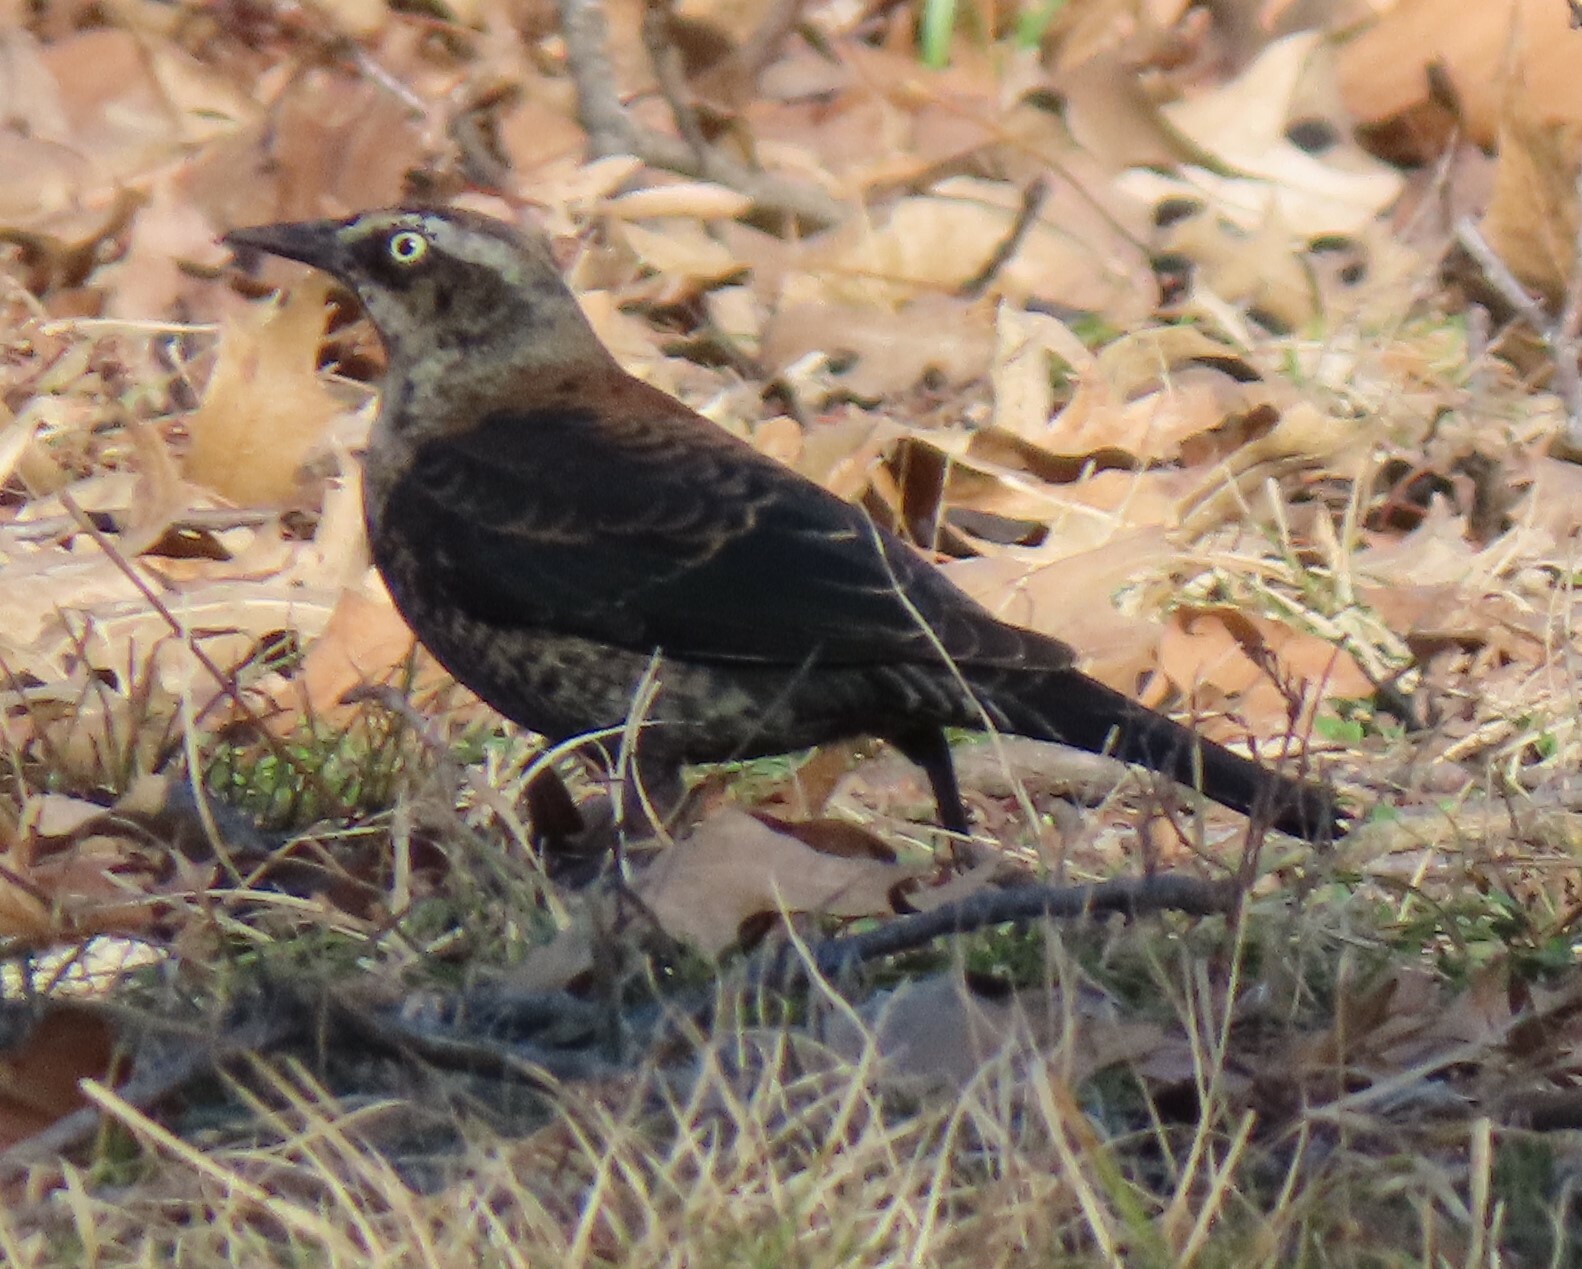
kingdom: Animalia
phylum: Chordata
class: Aves
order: Passeriformes
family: Icteridae
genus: Euphagus
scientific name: Euphagus carolinus
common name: Rusty blackbird
